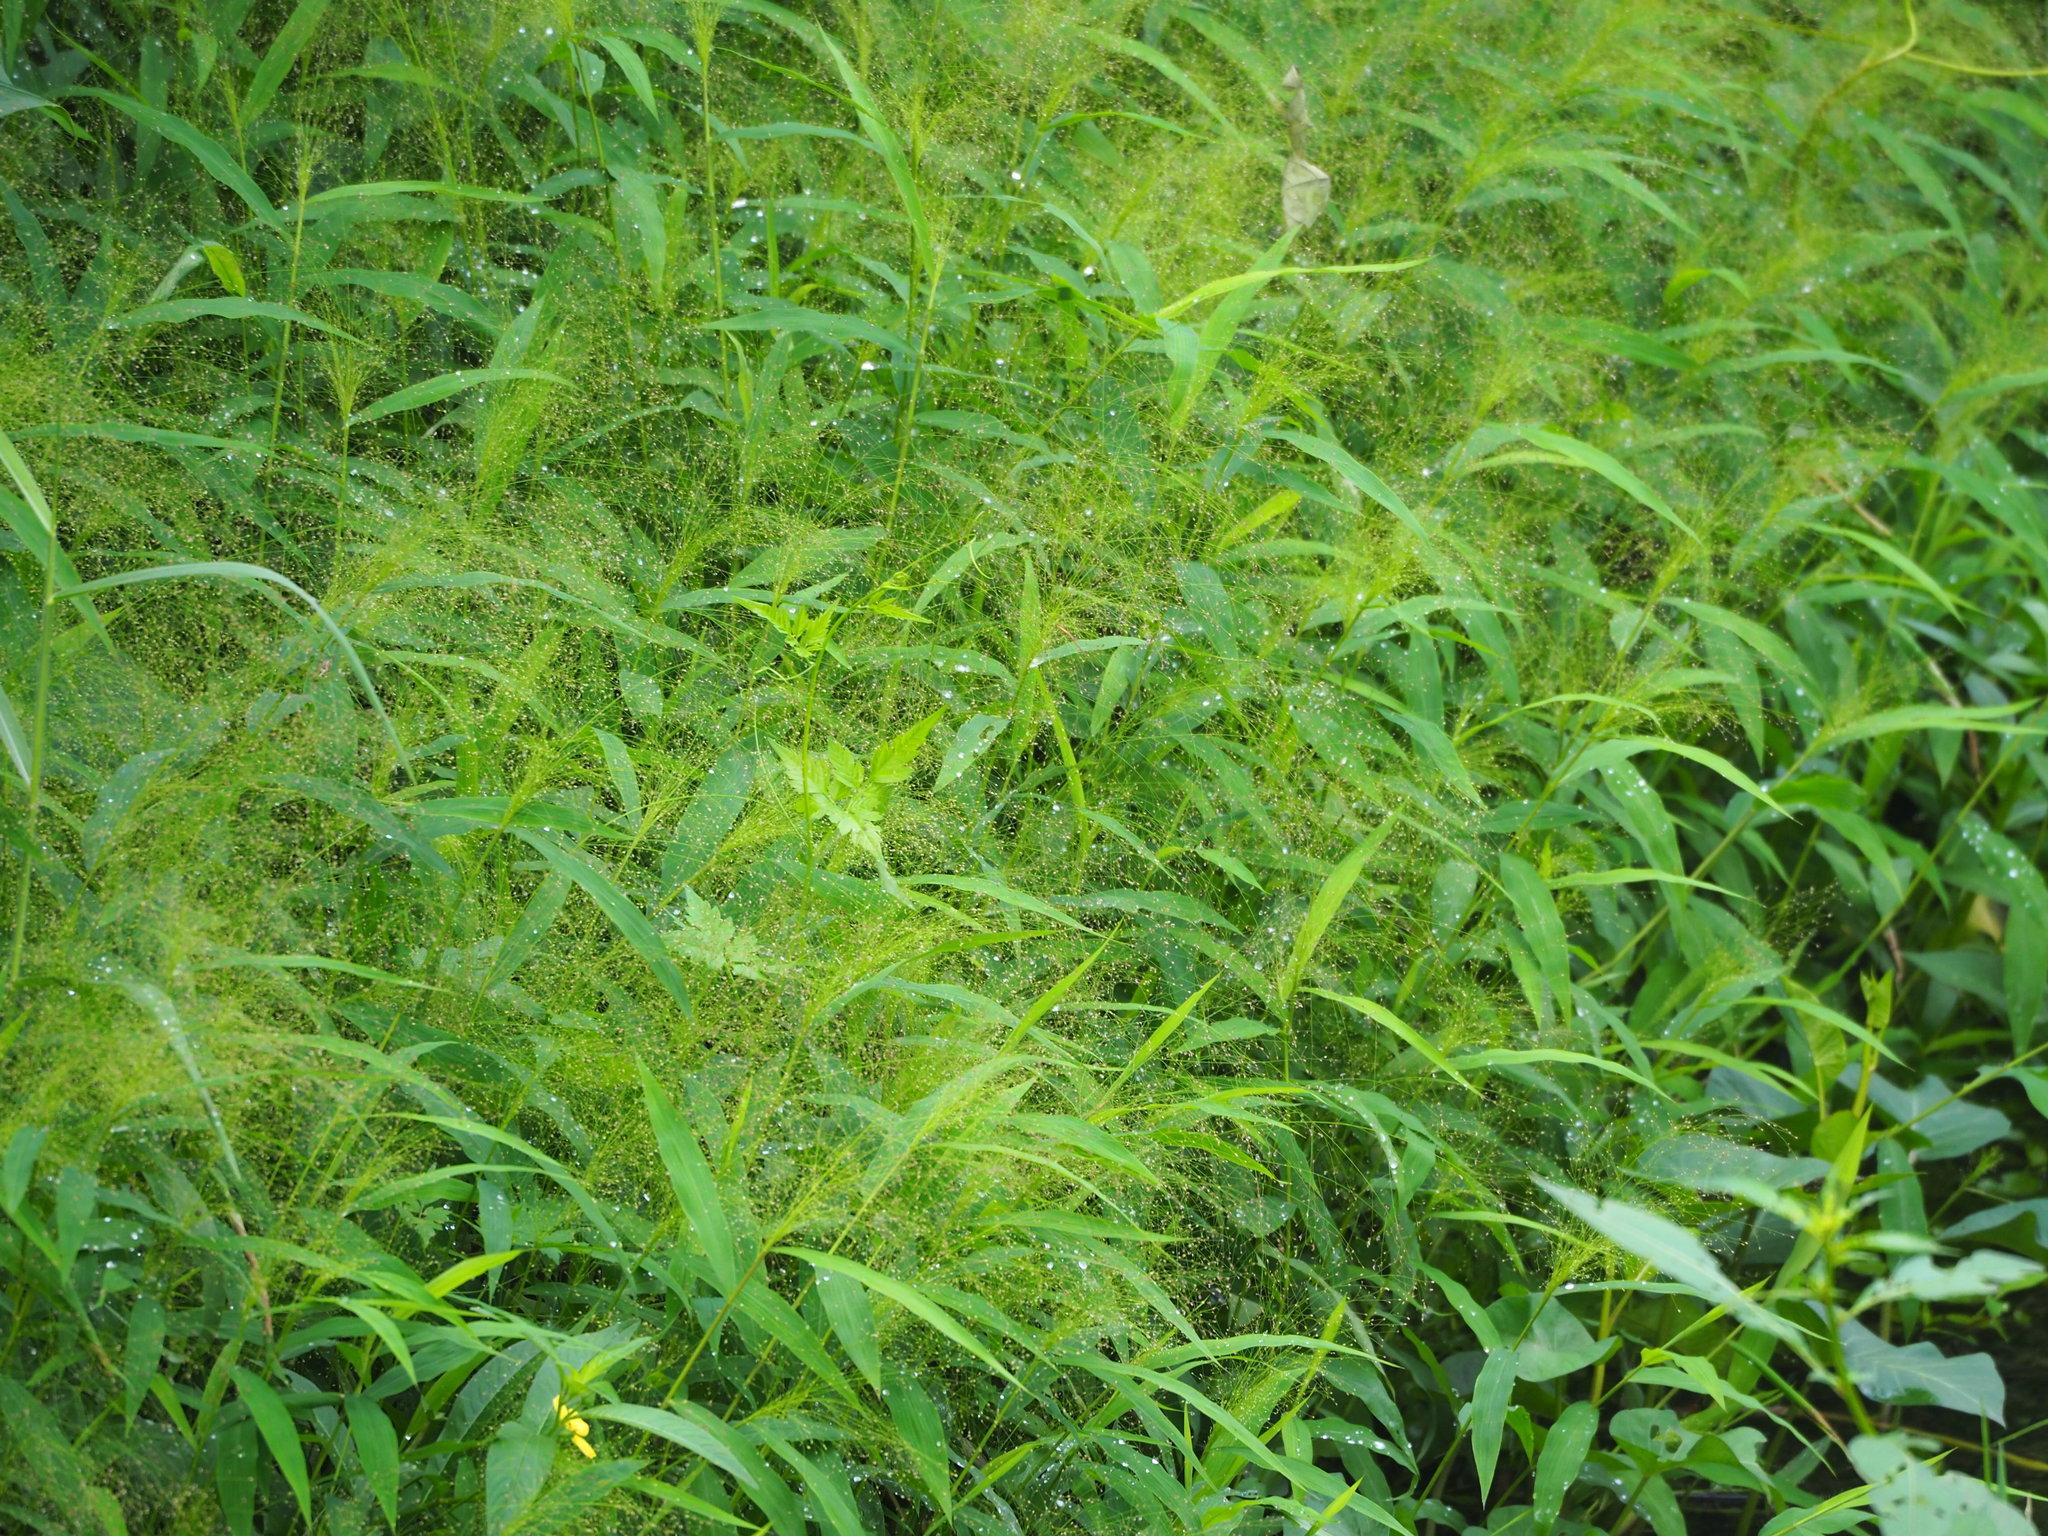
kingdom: Plantae
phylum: Tracheophyta
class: Liliopsida
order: Poales
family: Poaceae
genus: Cyrtococcum
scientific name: Cyrtococcum patens
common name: Broad-leaved bowgrass
